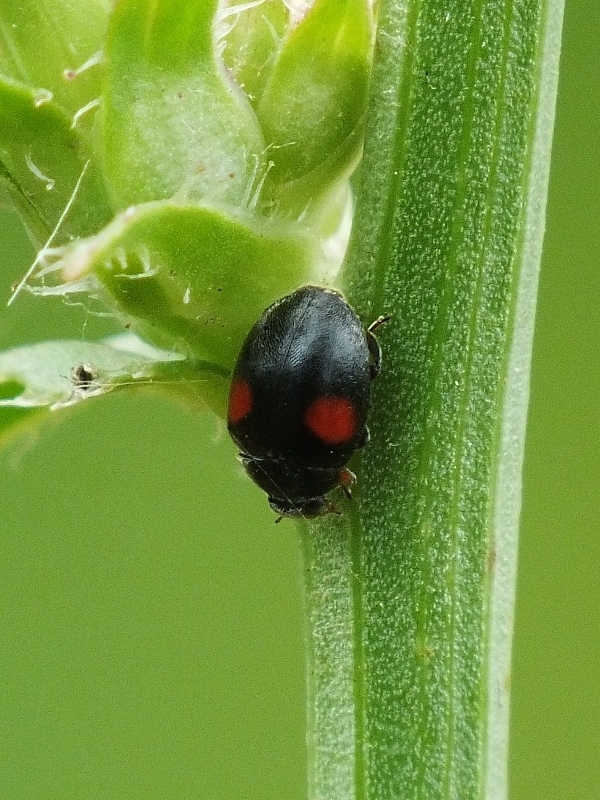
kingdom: Animalia
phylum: Arthropoda
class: Insecta
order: Coleoptera
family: Coccinellidae
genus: Scymnus
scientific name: Scymnus apetzi
